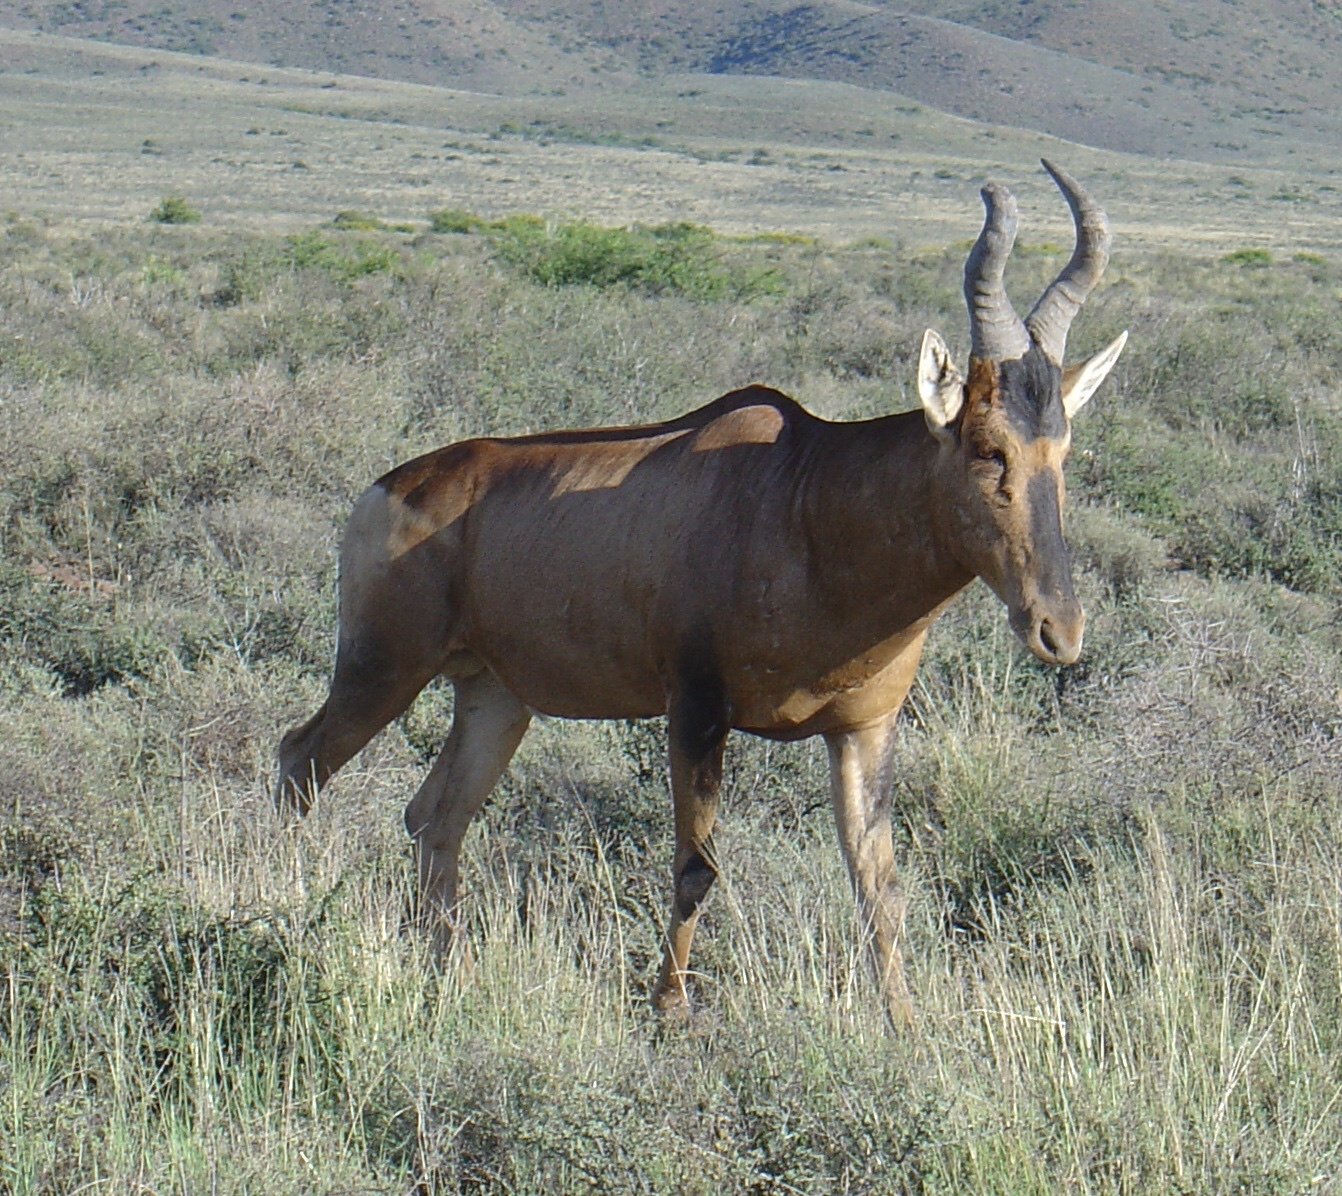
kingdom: Animalia
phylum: Chordata
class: Mammalia
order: Artiodactyla
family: Bovidae
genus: Alcelaphus
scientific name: Alcelaphus caama
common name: Red hartebeest
